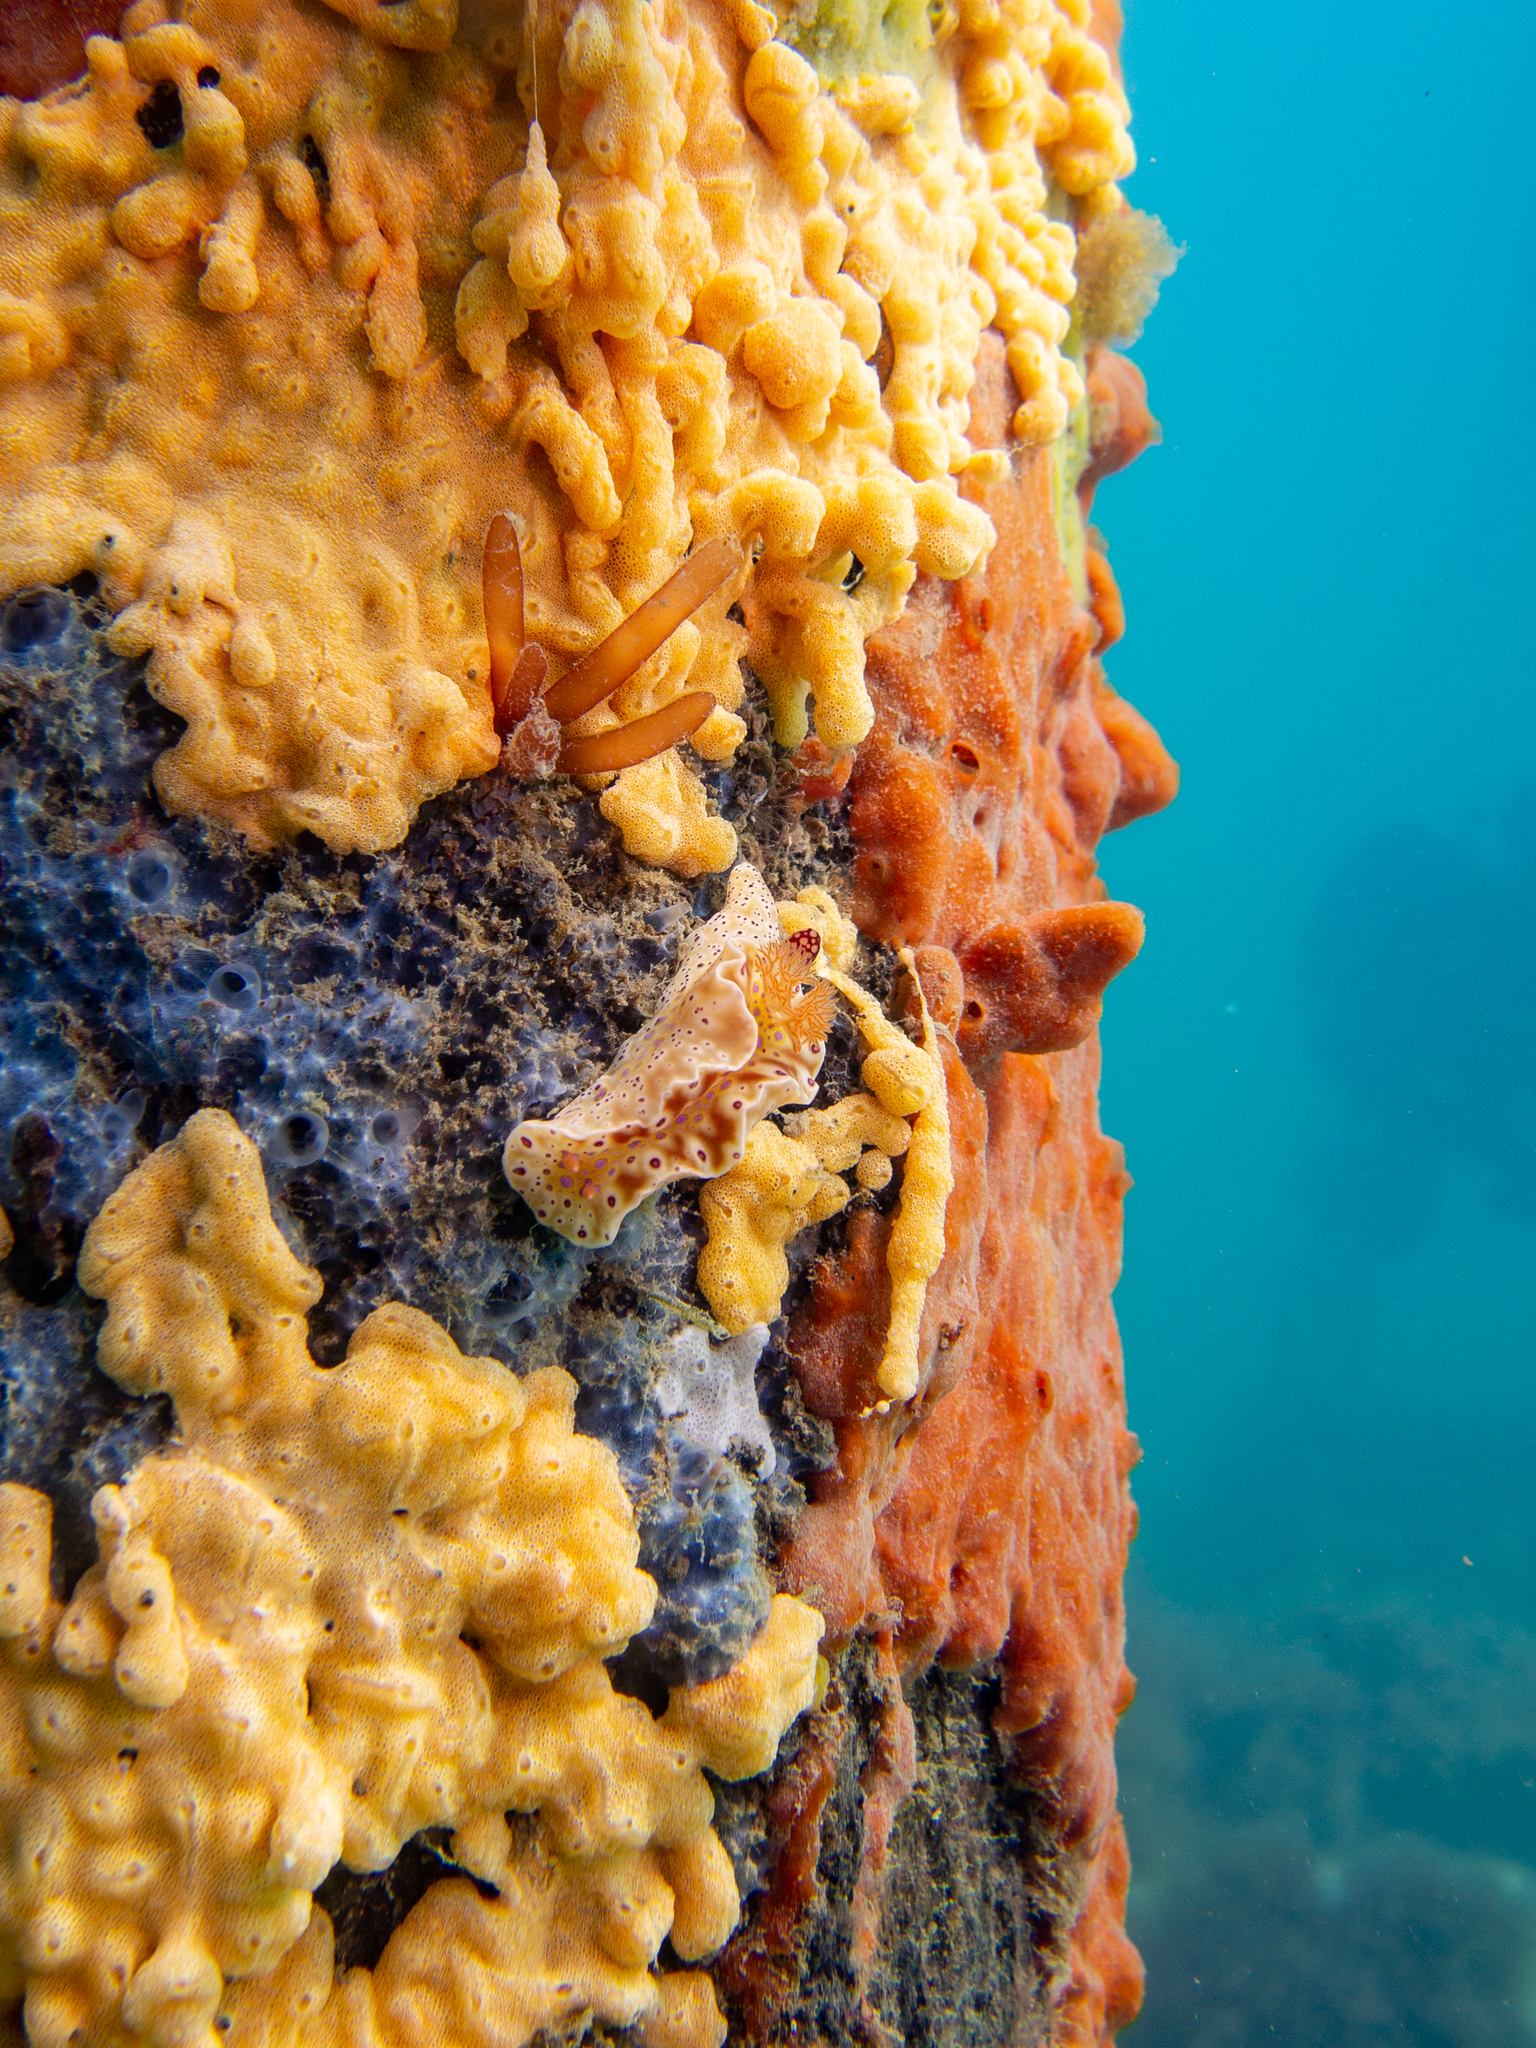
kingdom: Animalia
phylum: Mollusca
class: Gastropoda
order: Nudibranchia
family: Chromodorididae
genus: Ceratosoma
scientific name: Ceratosoma brevicaudatum
